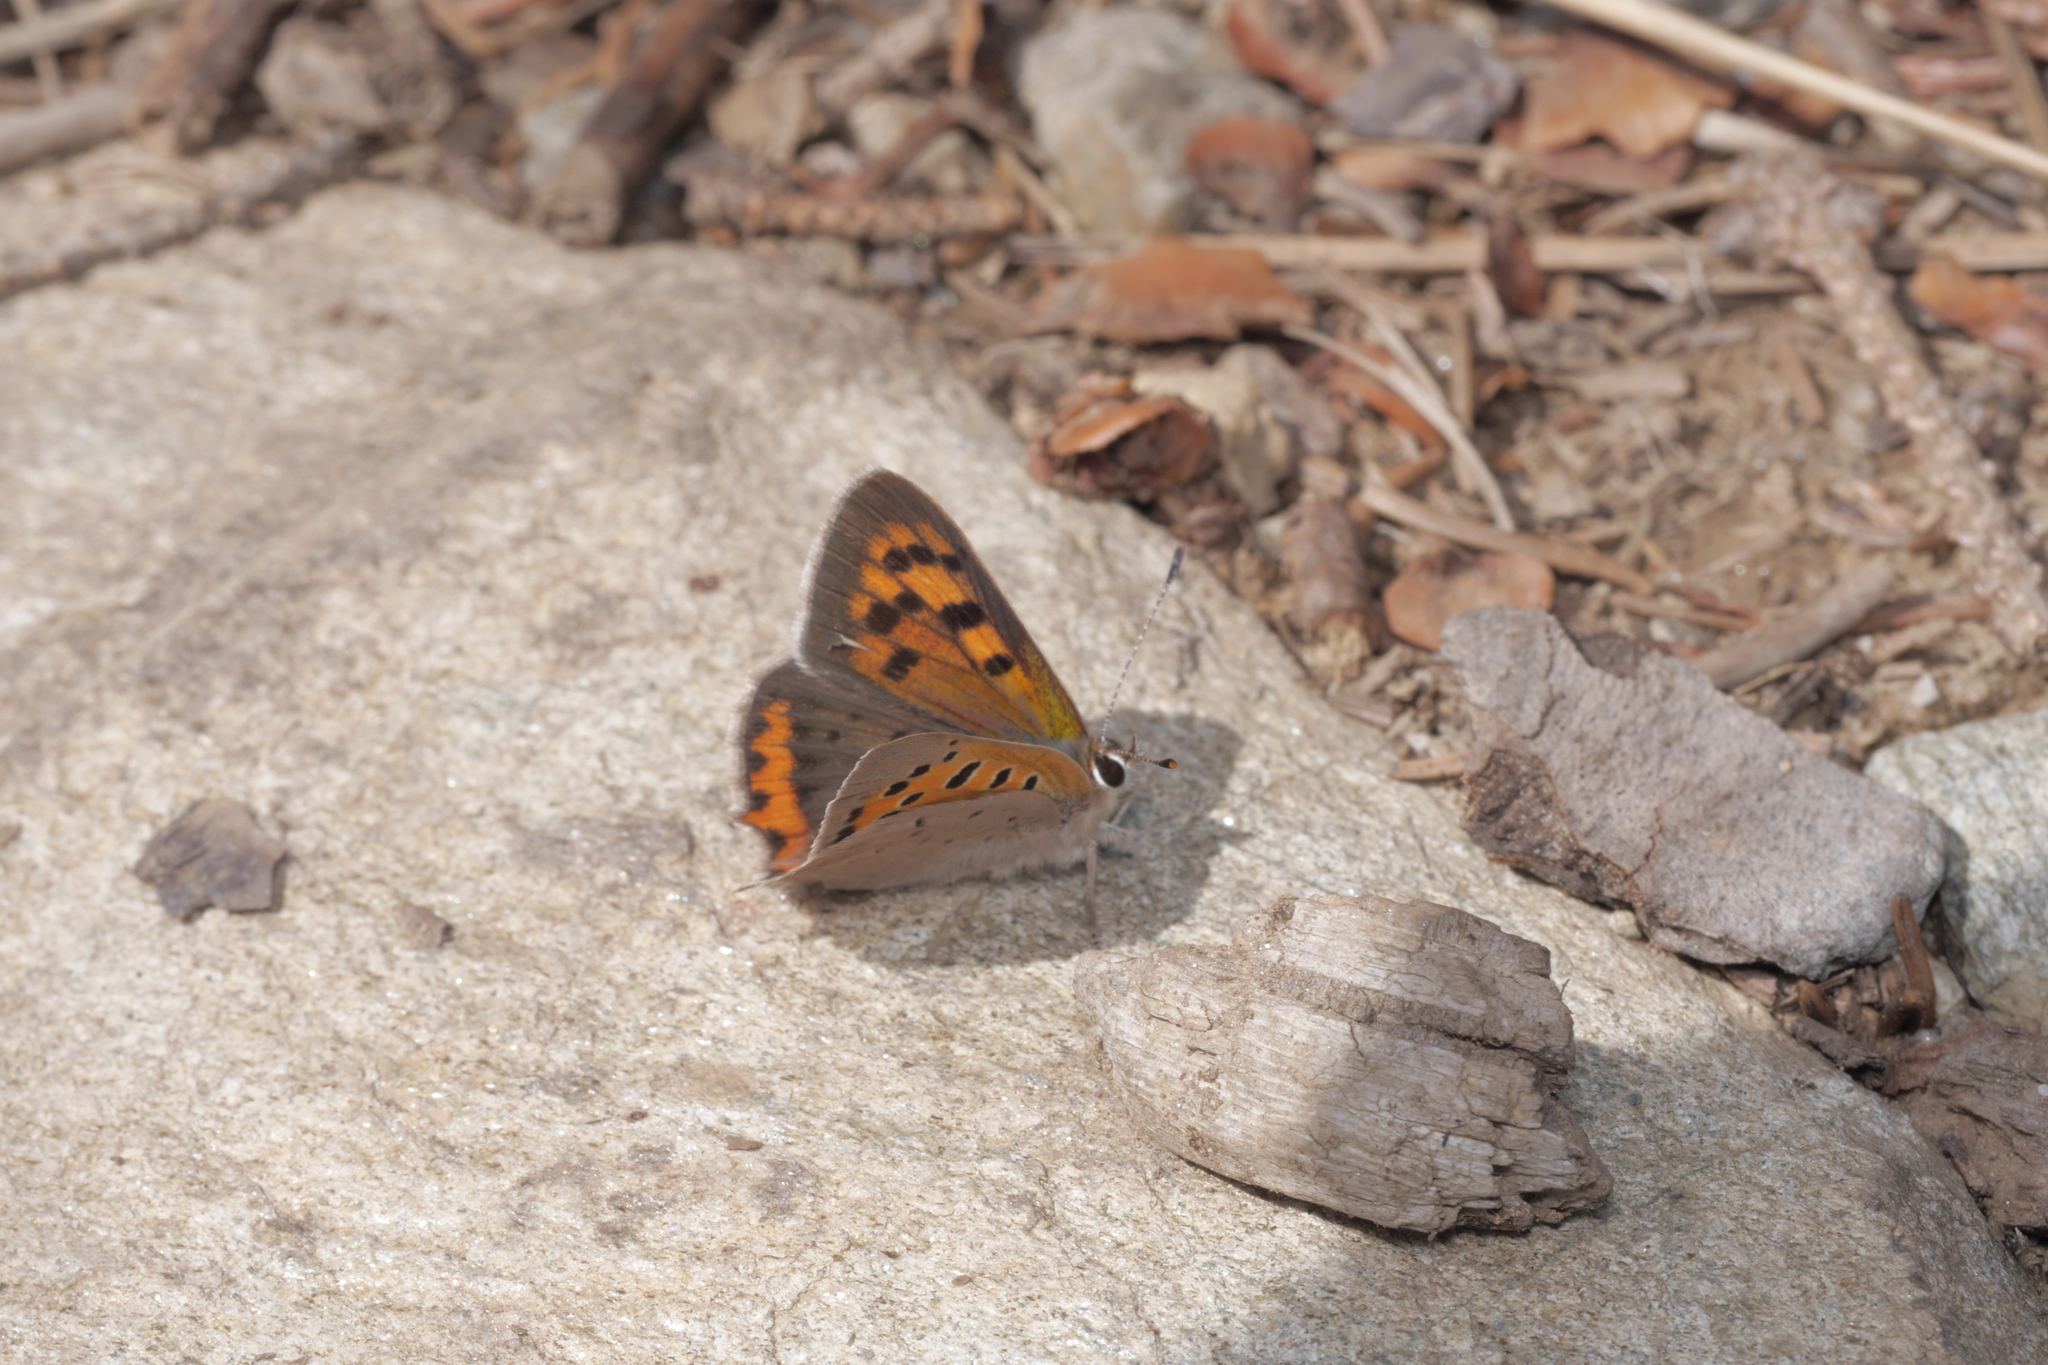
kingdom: Animalia
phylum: Arthropoda
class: Insecta
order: Lepidoptera
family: Lycaenidae
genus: Lycaena
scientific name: Lycaena phlaeas
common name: Small copper
